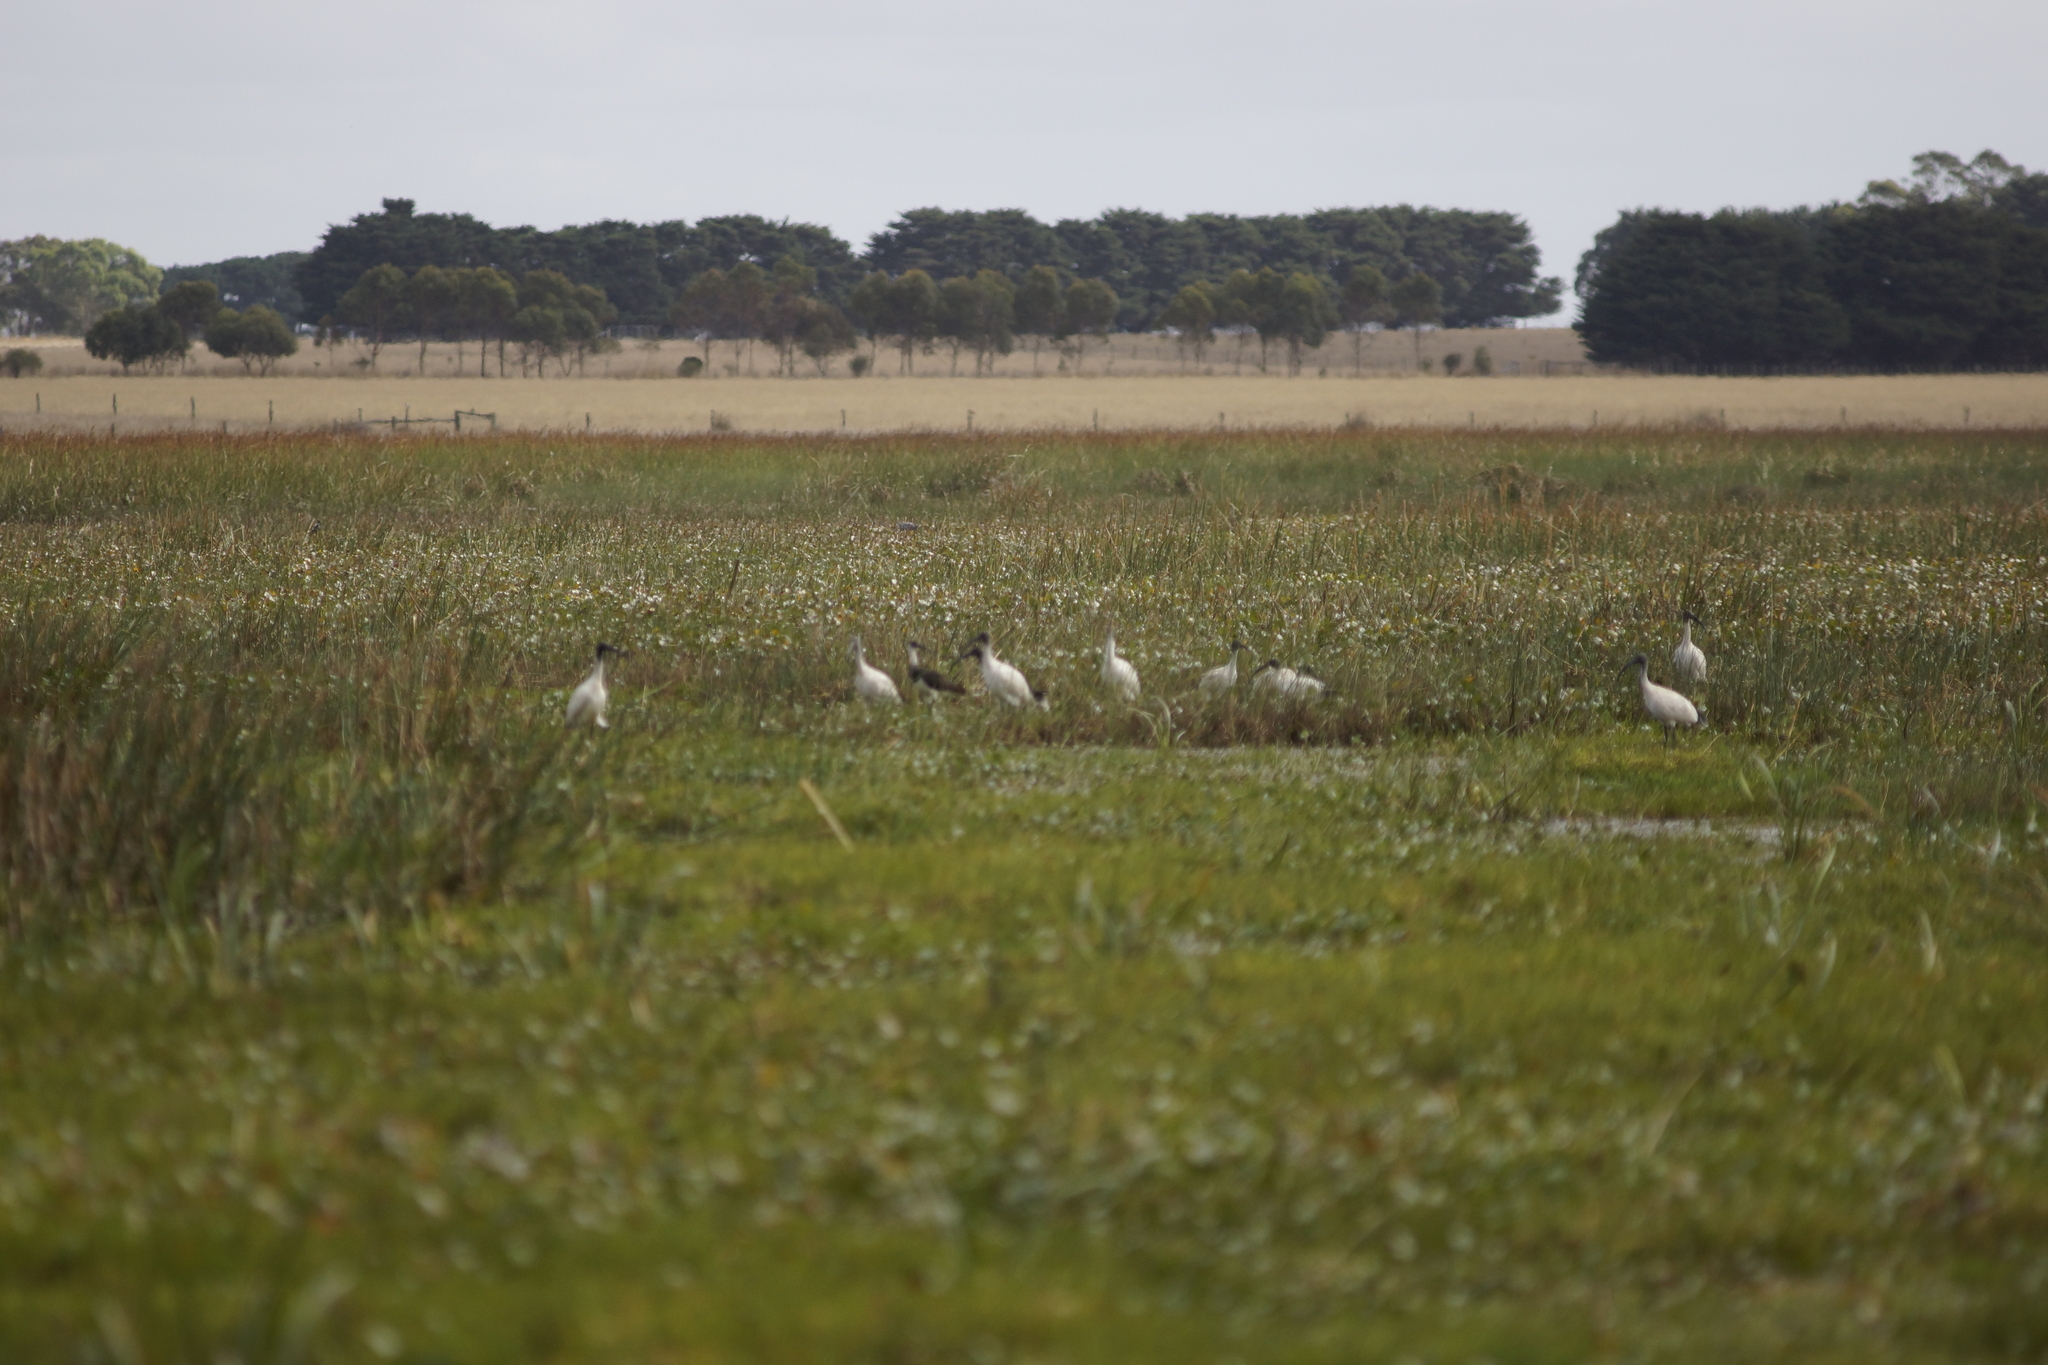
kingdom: Animalia
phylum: Chordata
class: Aves
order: Pelecaniformes
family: Threskiornithidae
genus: Threskiornis
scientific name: Threskiornis molucca
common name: Australian white ibis
